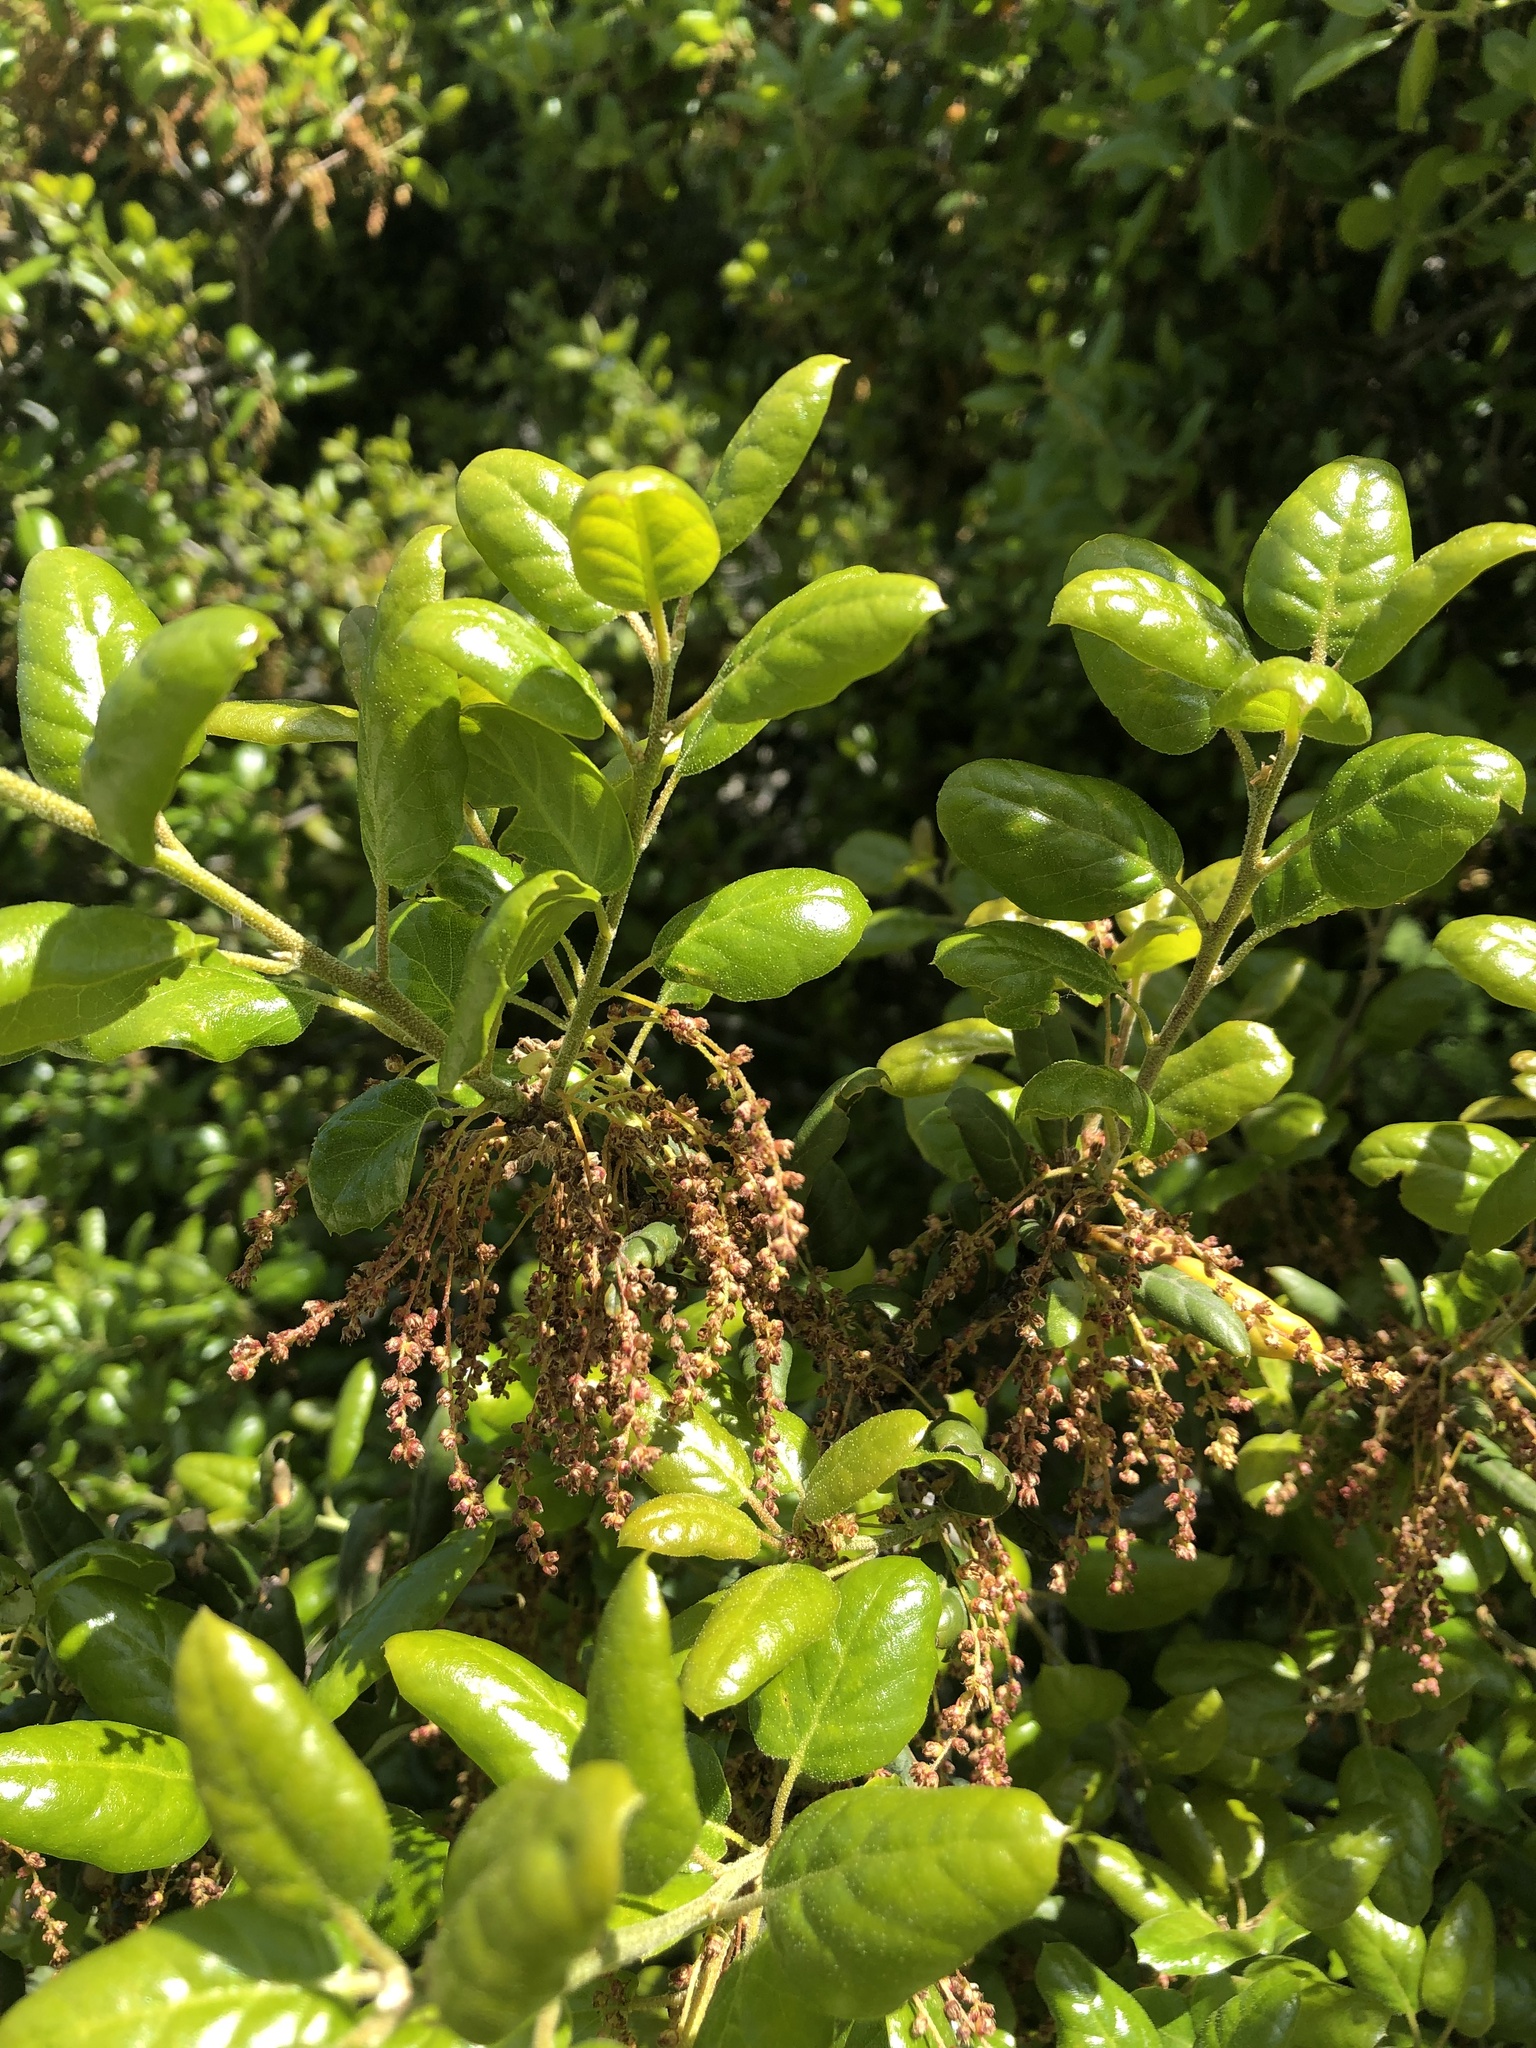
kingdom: Plantae
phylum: Tracheophyta
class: Magnoliopsida
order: Fagales
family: Fagaceae
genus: Quercus
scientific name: Quercus agrifolia
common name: California live oak
